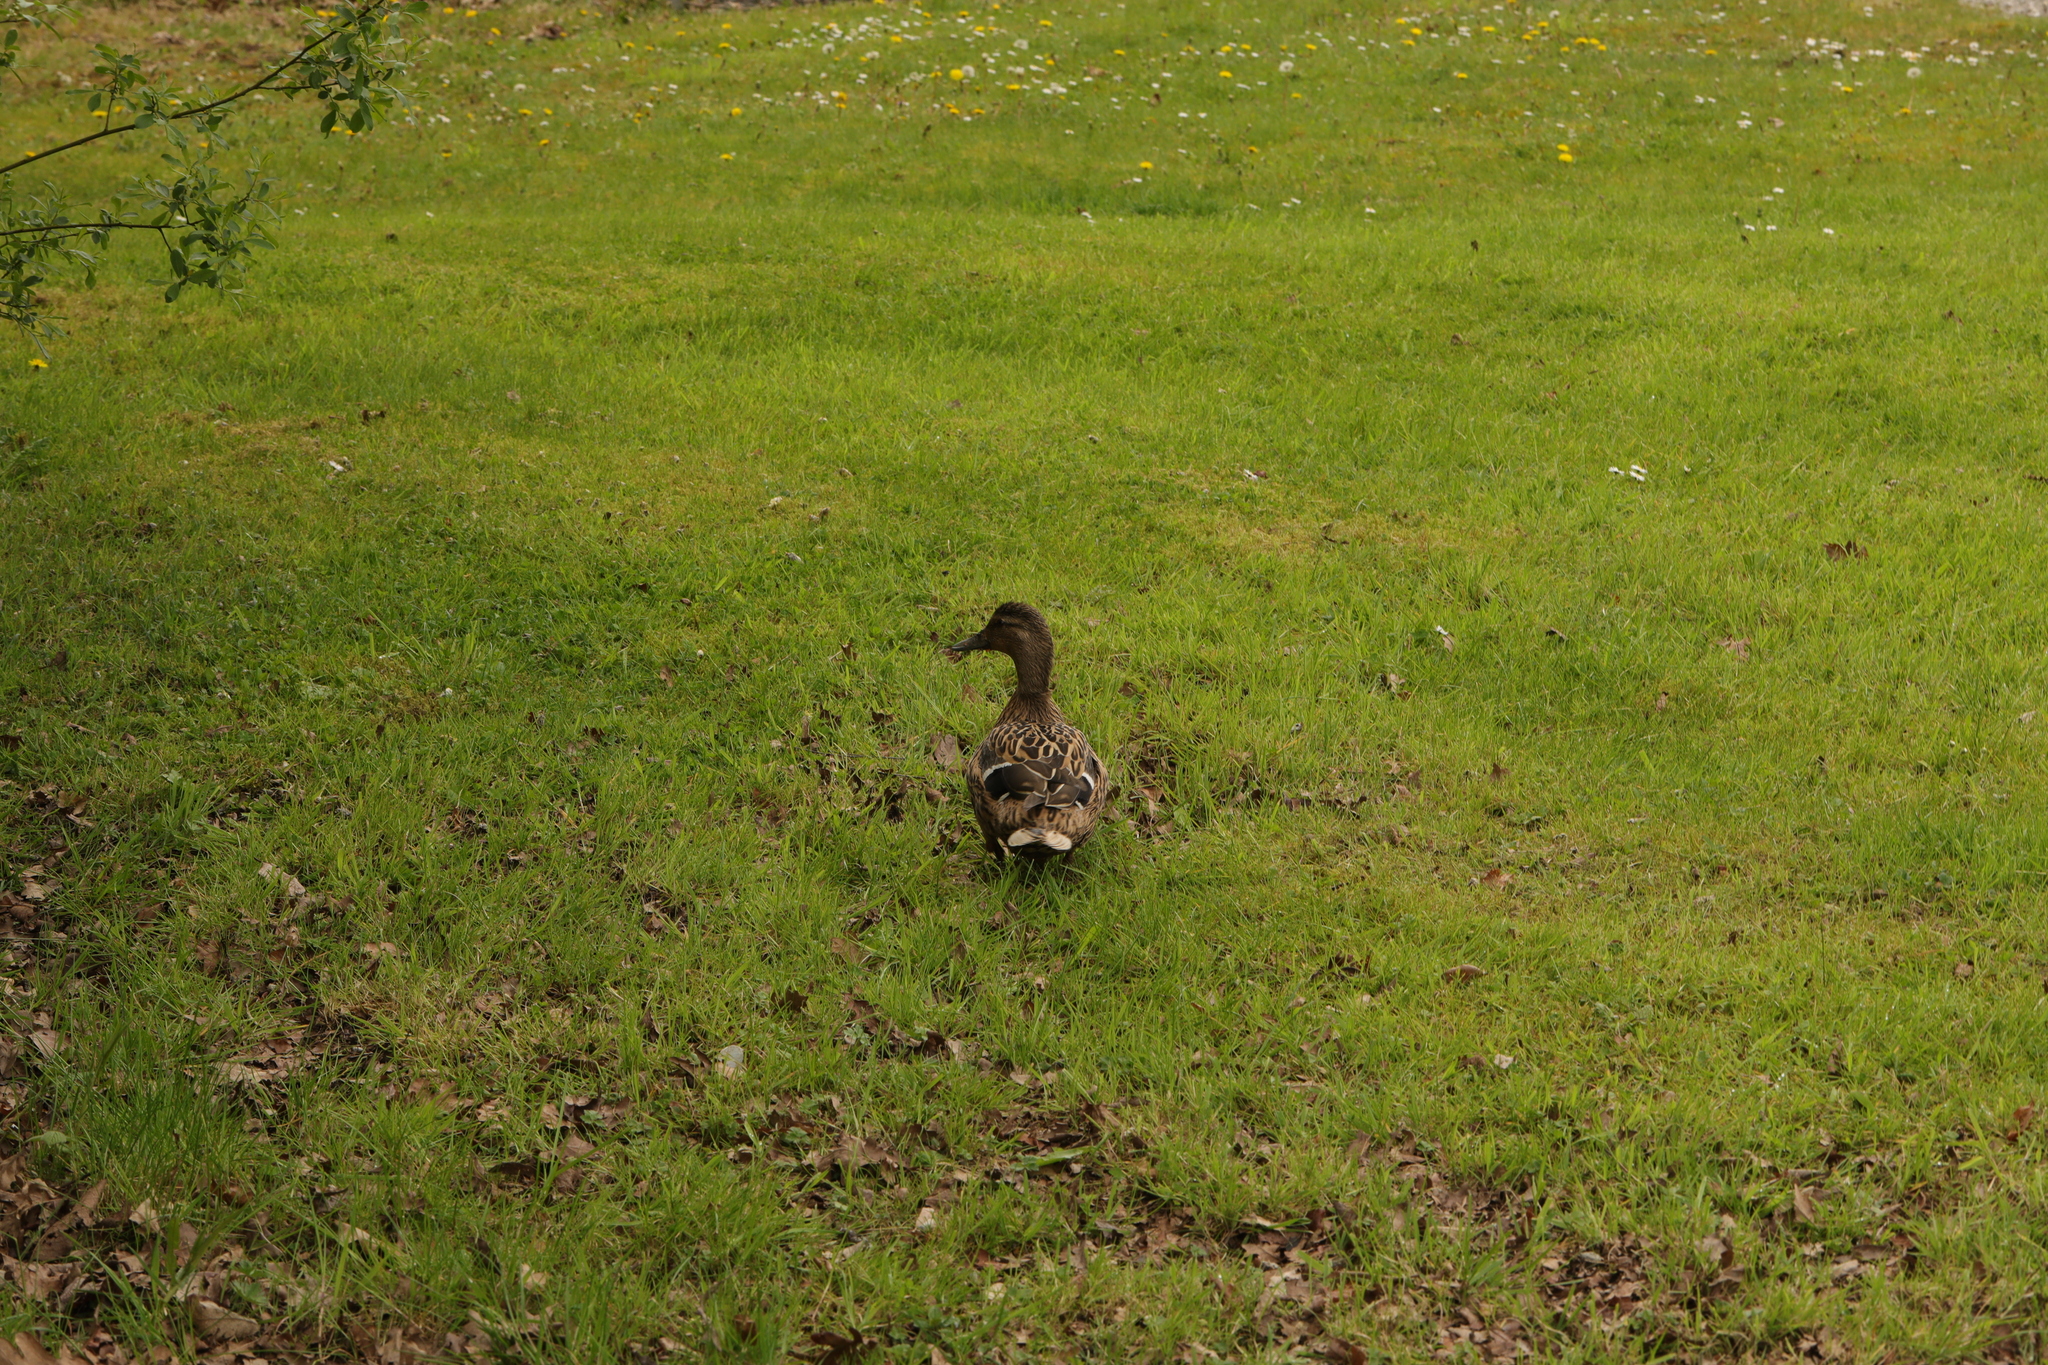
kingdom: Animalia
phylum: Chordata
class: Aves
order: Anseriformes
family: Anatidae
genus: Anas
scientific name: Anas platyrhynchos
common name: Mallard
